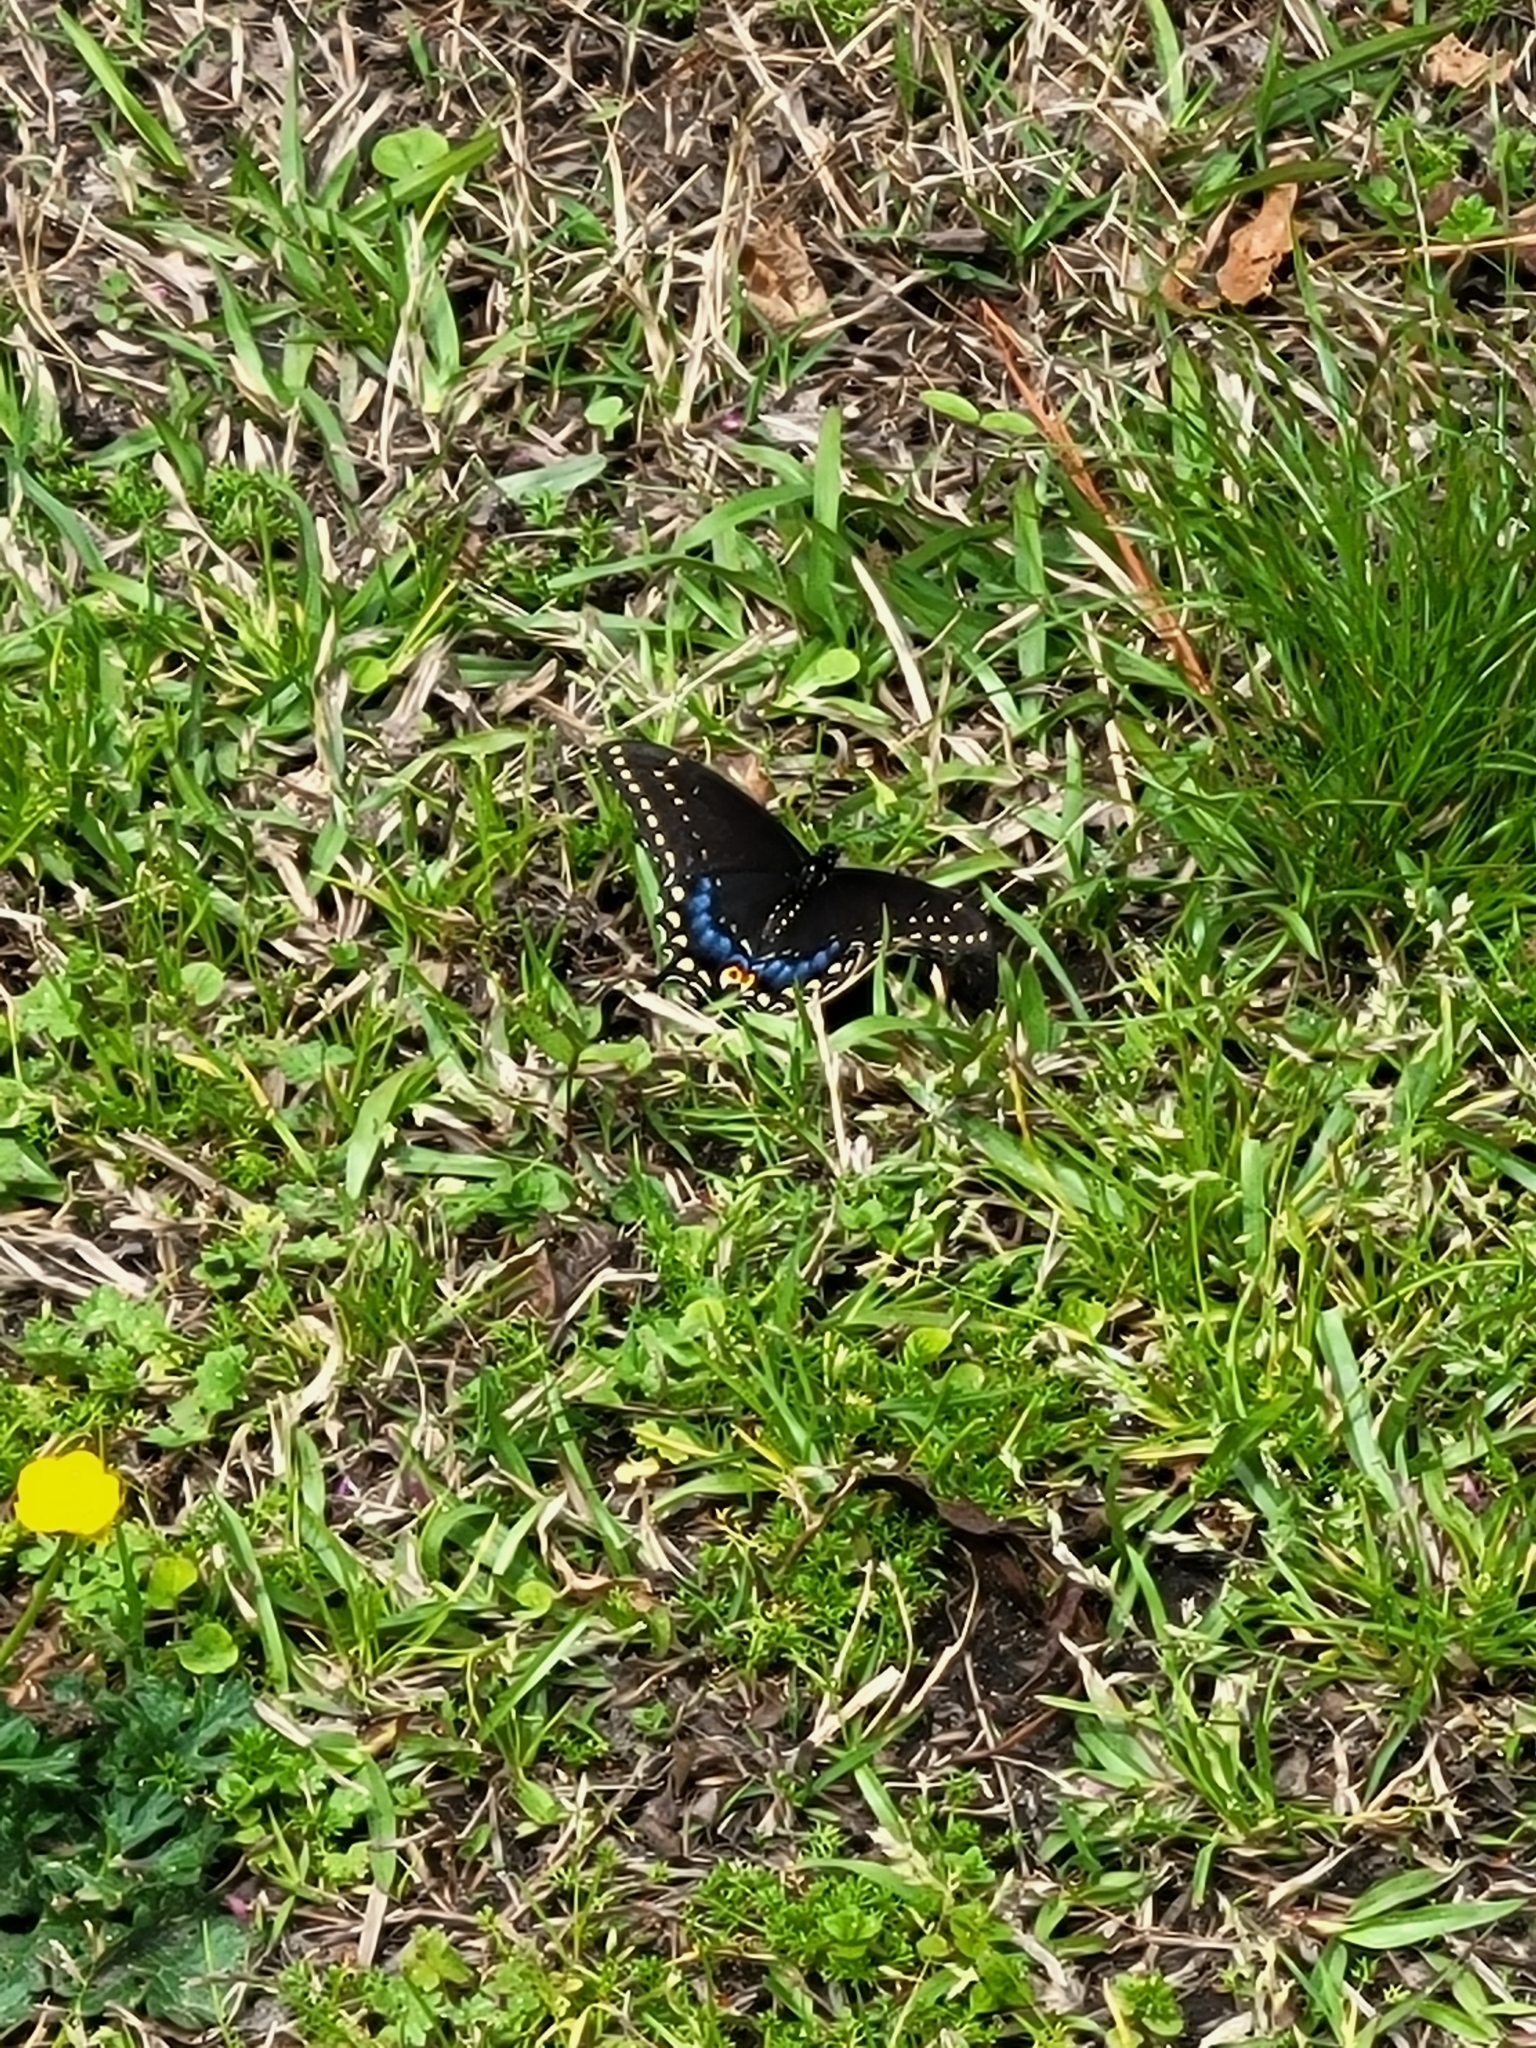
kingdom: Animalia
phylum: Arthropoda
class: Insecta
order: Lepidoptera
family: Papilionidae
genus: Papilio
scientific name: Papilio polyxenes
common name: Black swallowtail
